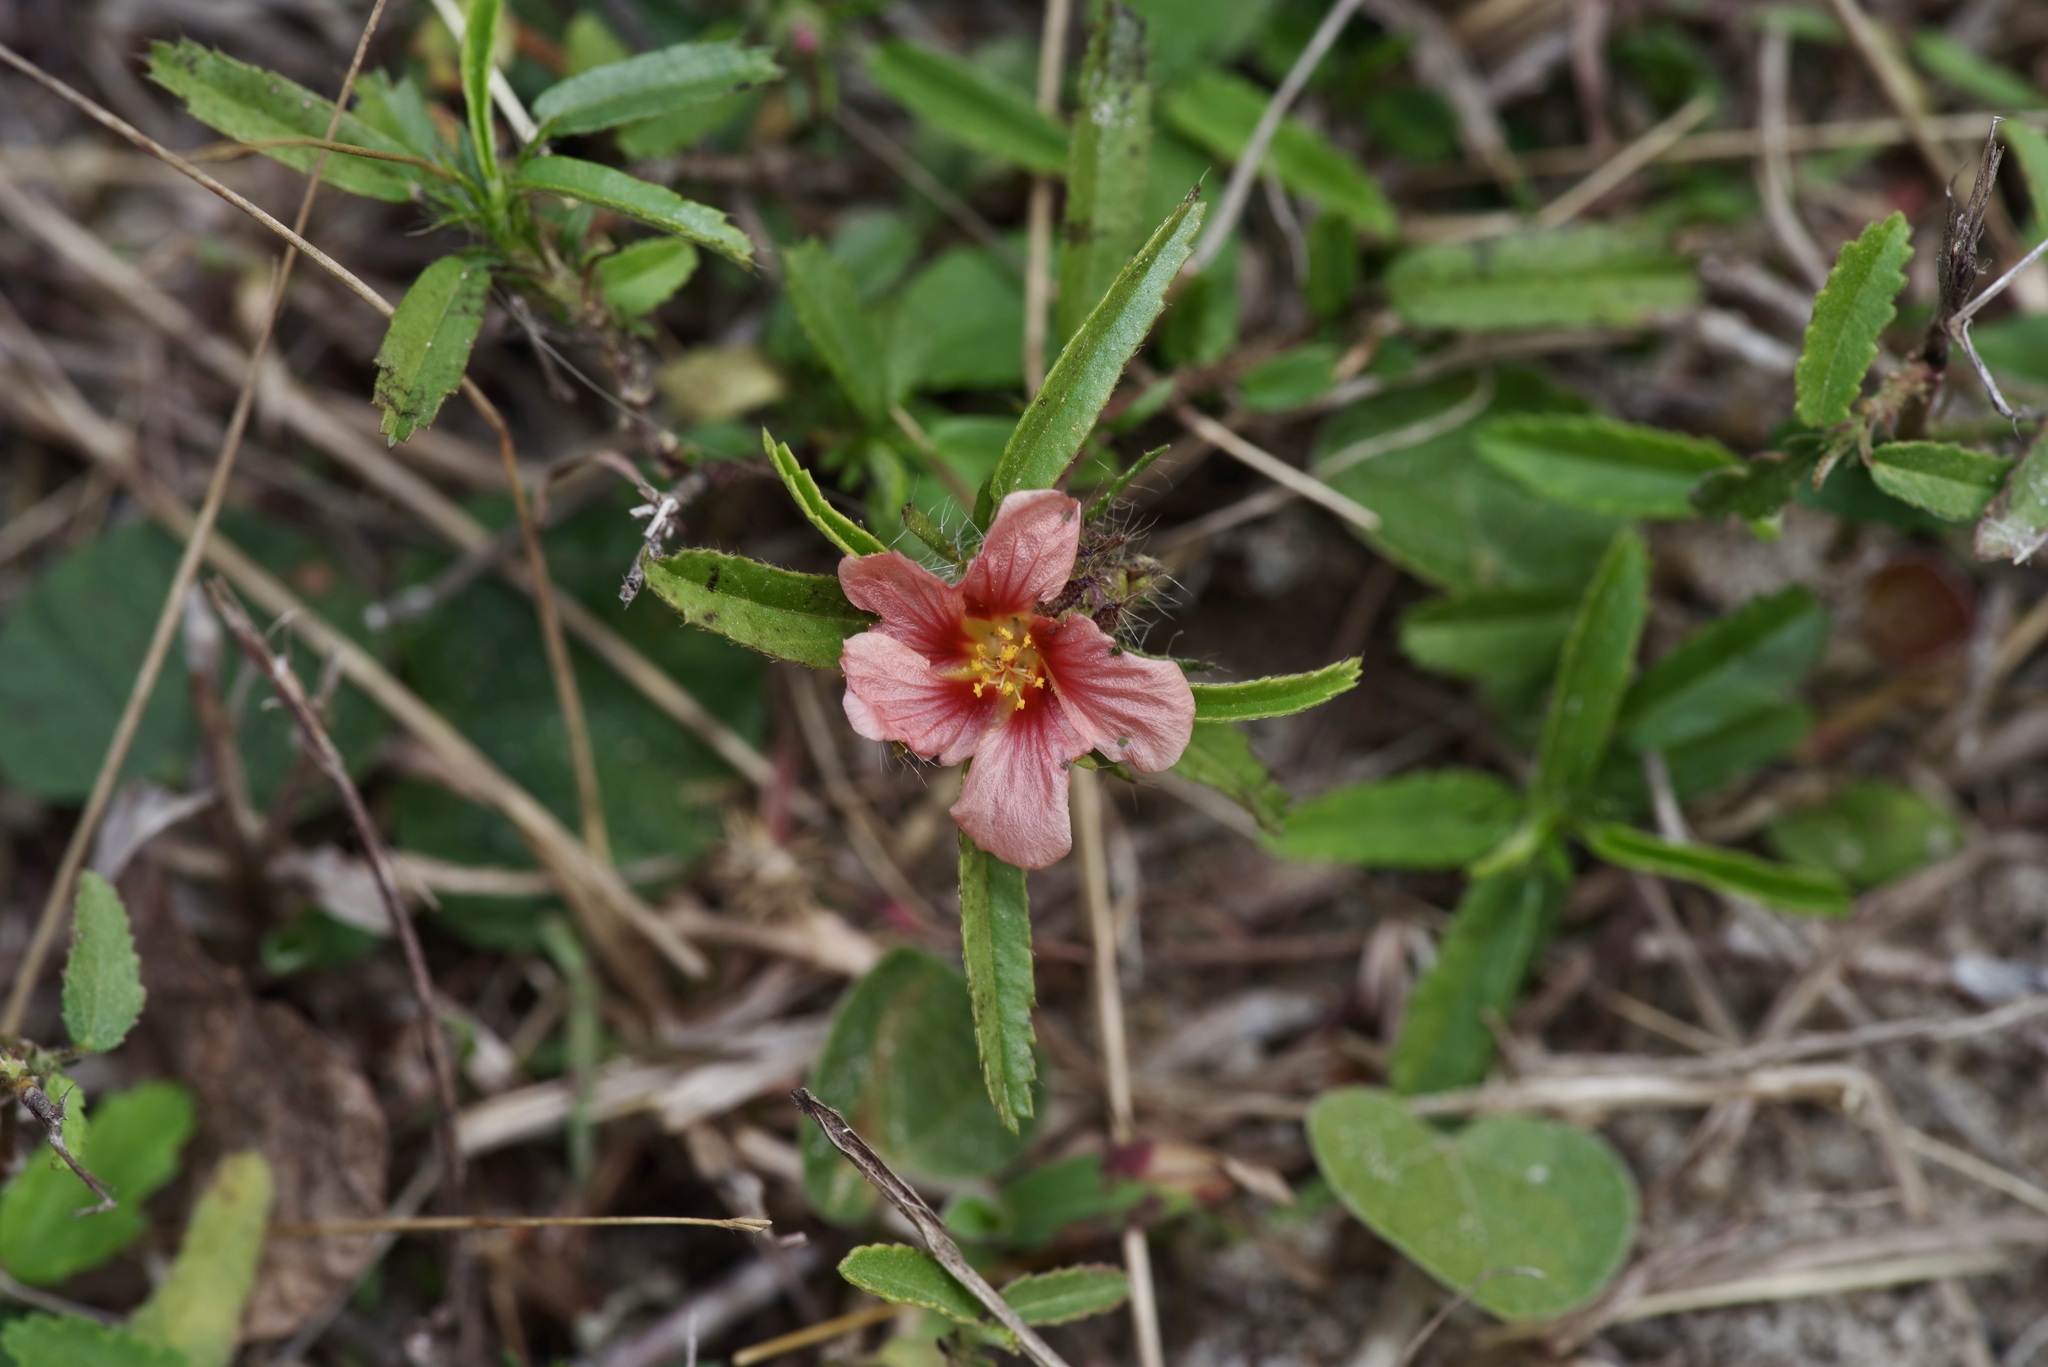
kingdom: Plantae
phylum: Tracheophyta
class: Magnoliopsida
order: Malvales
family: Malvaceae
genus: Sida
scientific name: Sida ciliaris
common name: Bracted fanpetals
